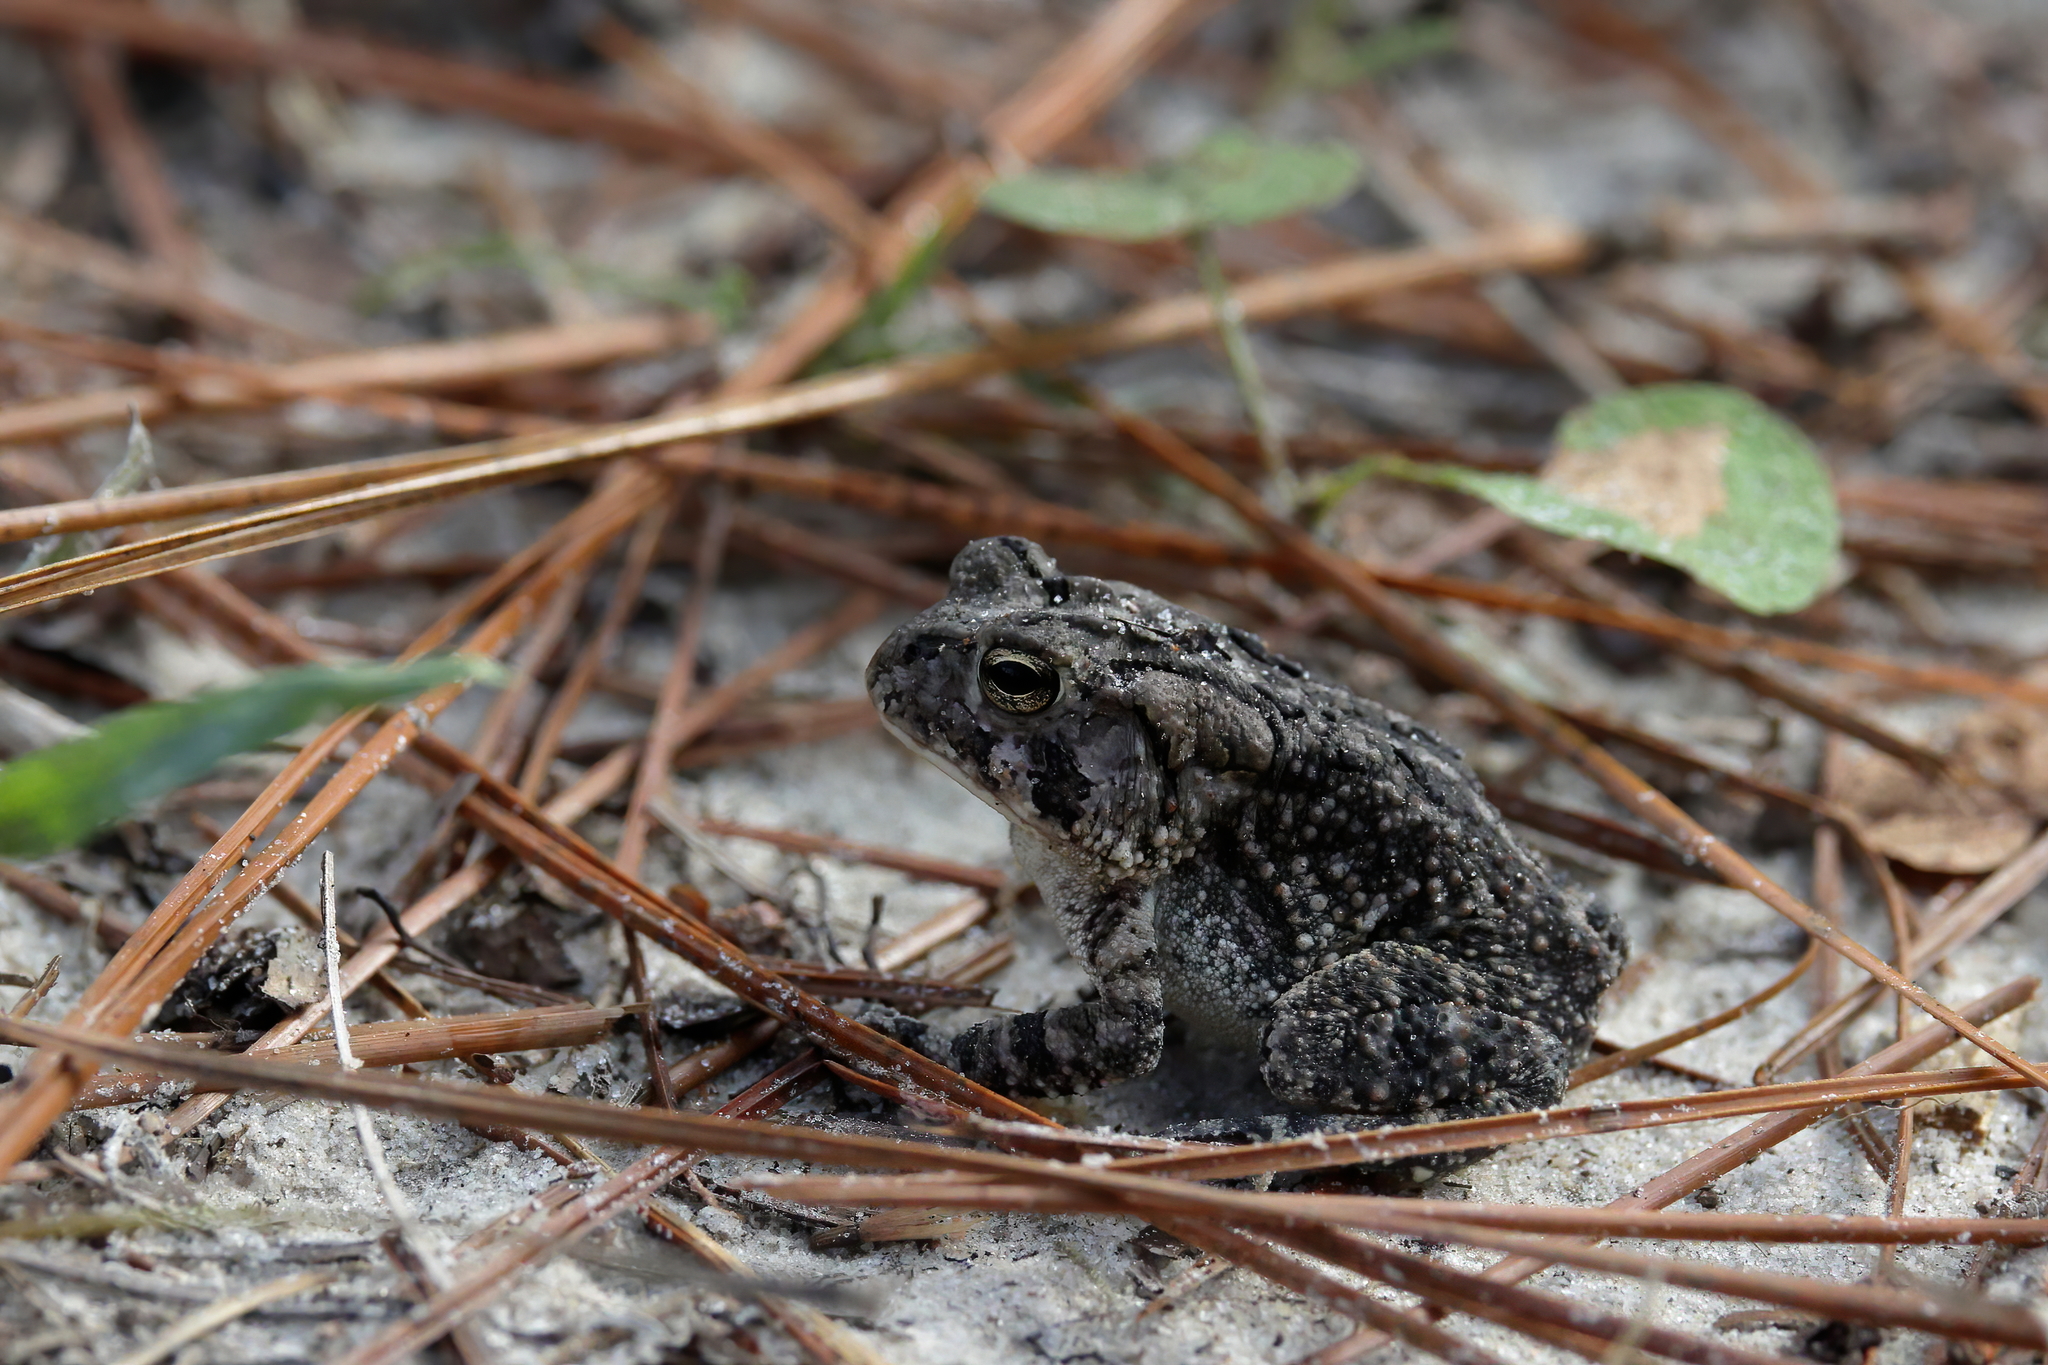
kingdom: Animalia
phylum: Chordata
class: Amphibia
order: Anura
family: Bufonidae
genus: Anaxyrus
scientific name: Anaxyrus terrestris
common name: Southern toad
